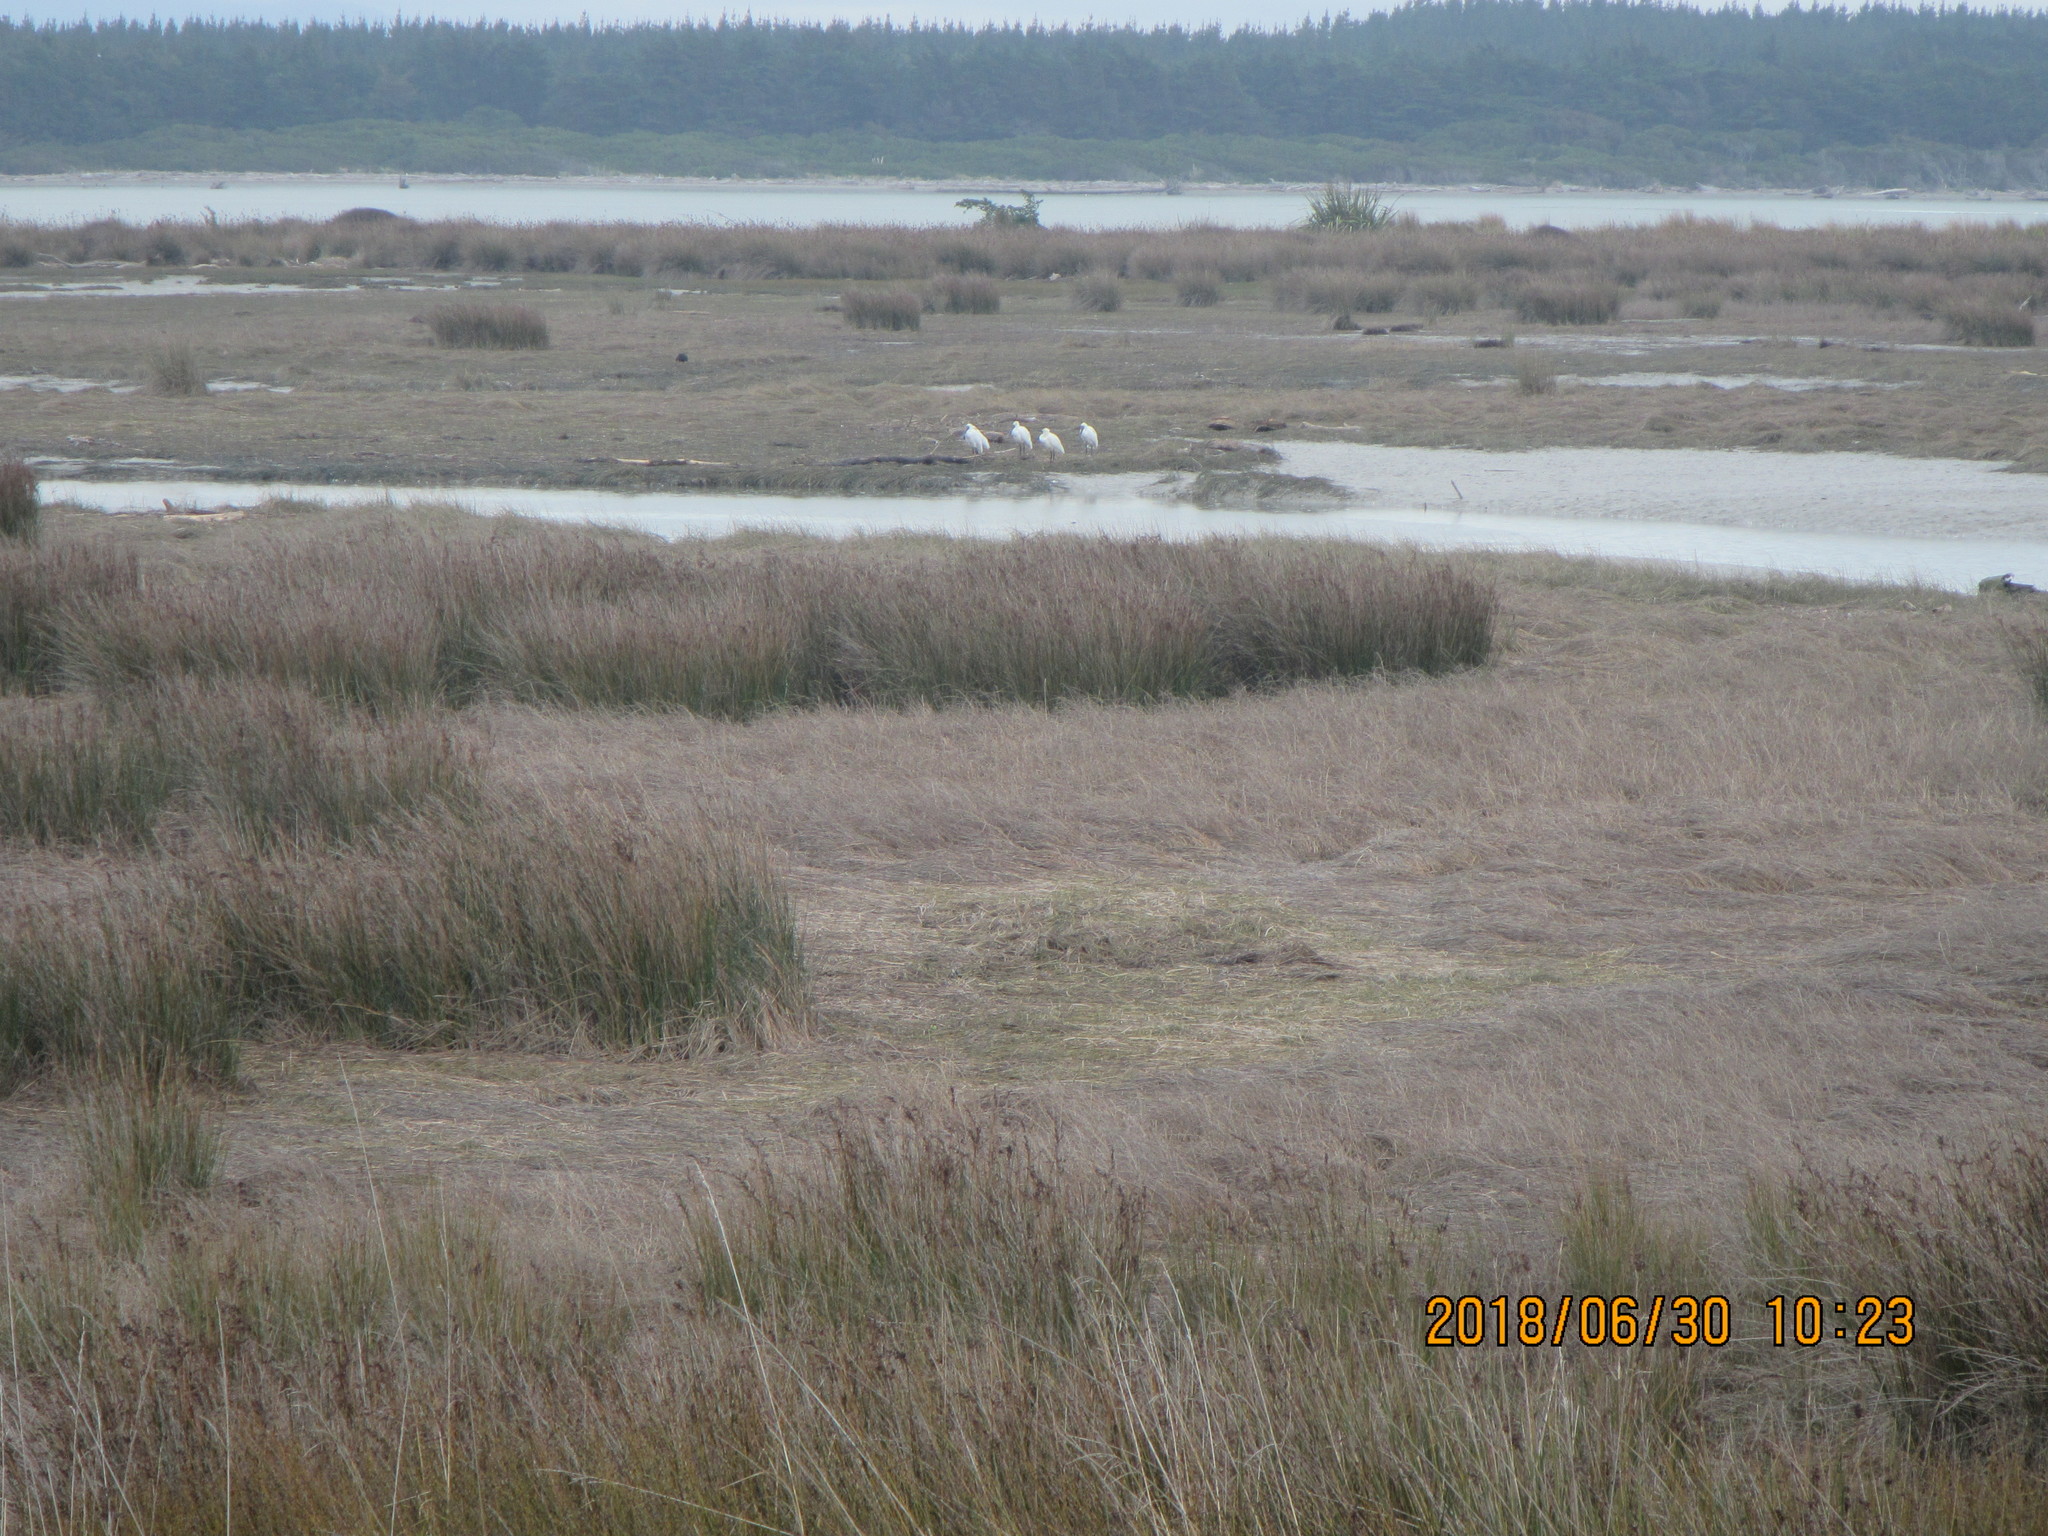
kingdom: Animalia
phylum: Chordata
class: Aves
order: Pelecaniformes
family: Threskiornithidae
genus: Platalea
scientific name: Platalea regia
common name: Royal spoonbill
